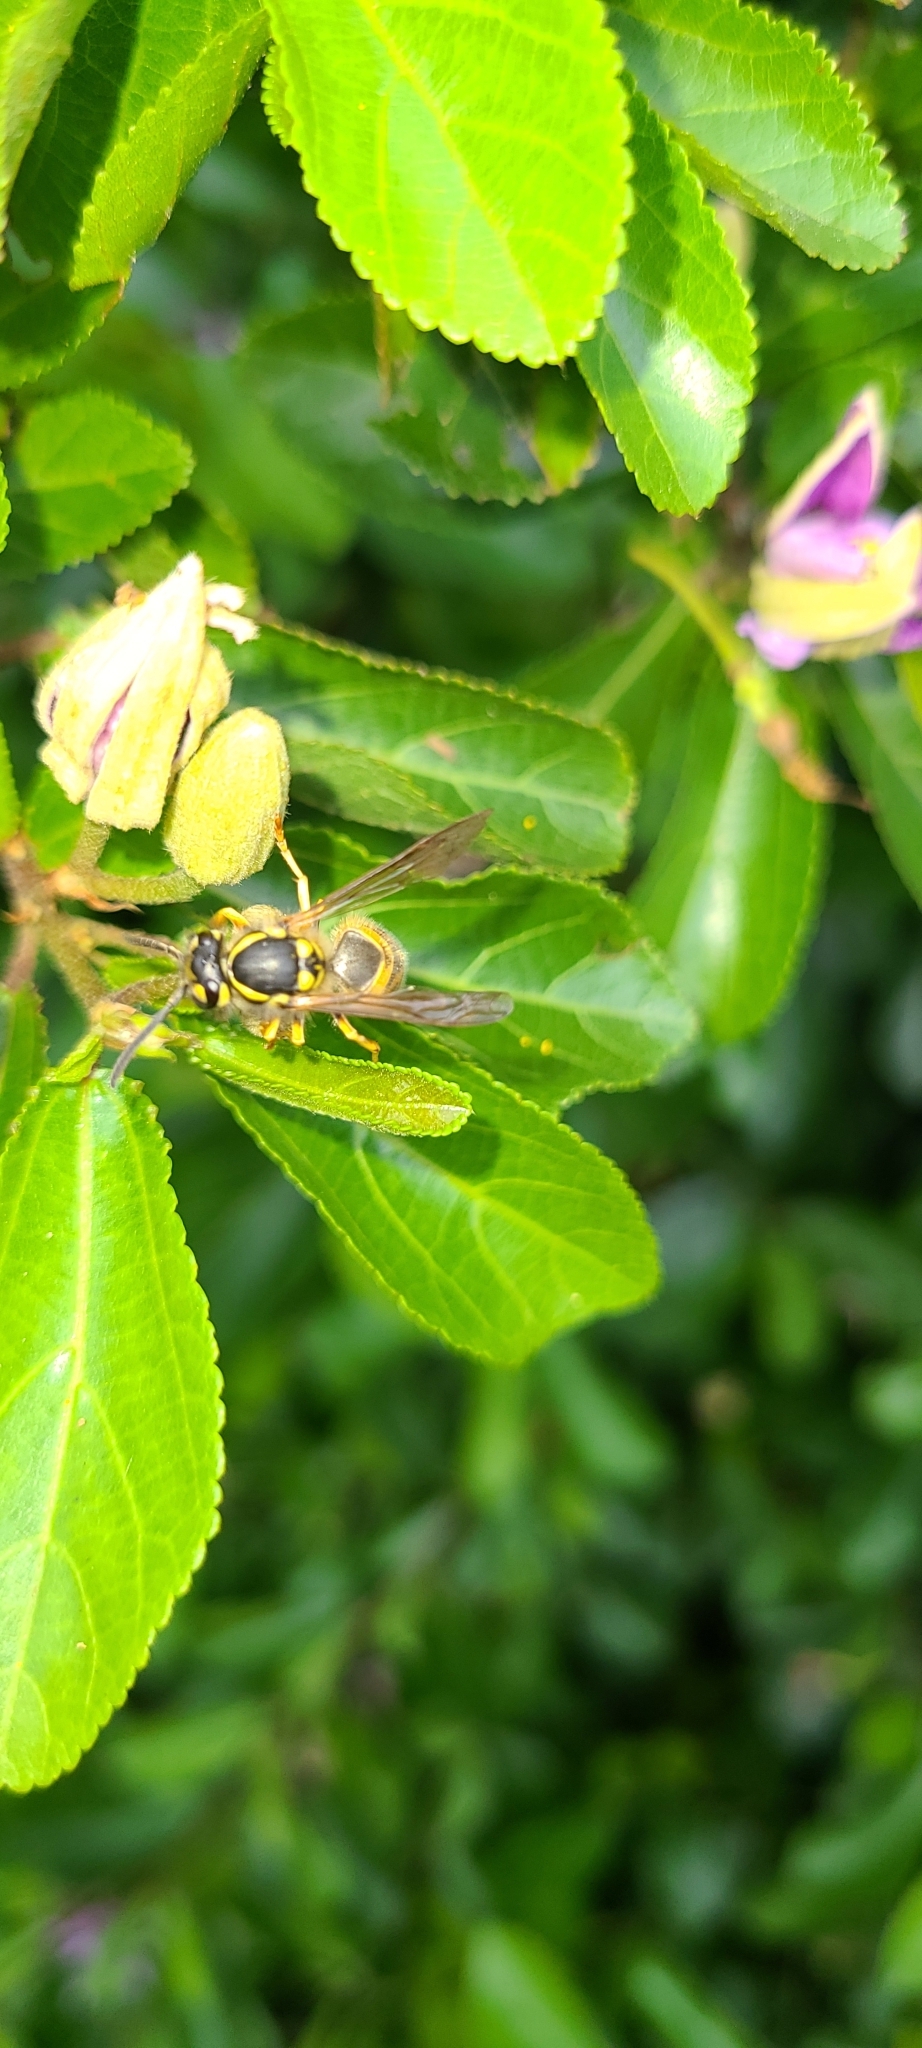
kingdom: Animalia
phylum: Arthropoda
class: Insecta
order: Hymenoptera
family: Vespidae
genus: Vespula
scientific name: Vespula germanica
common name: German wasp
